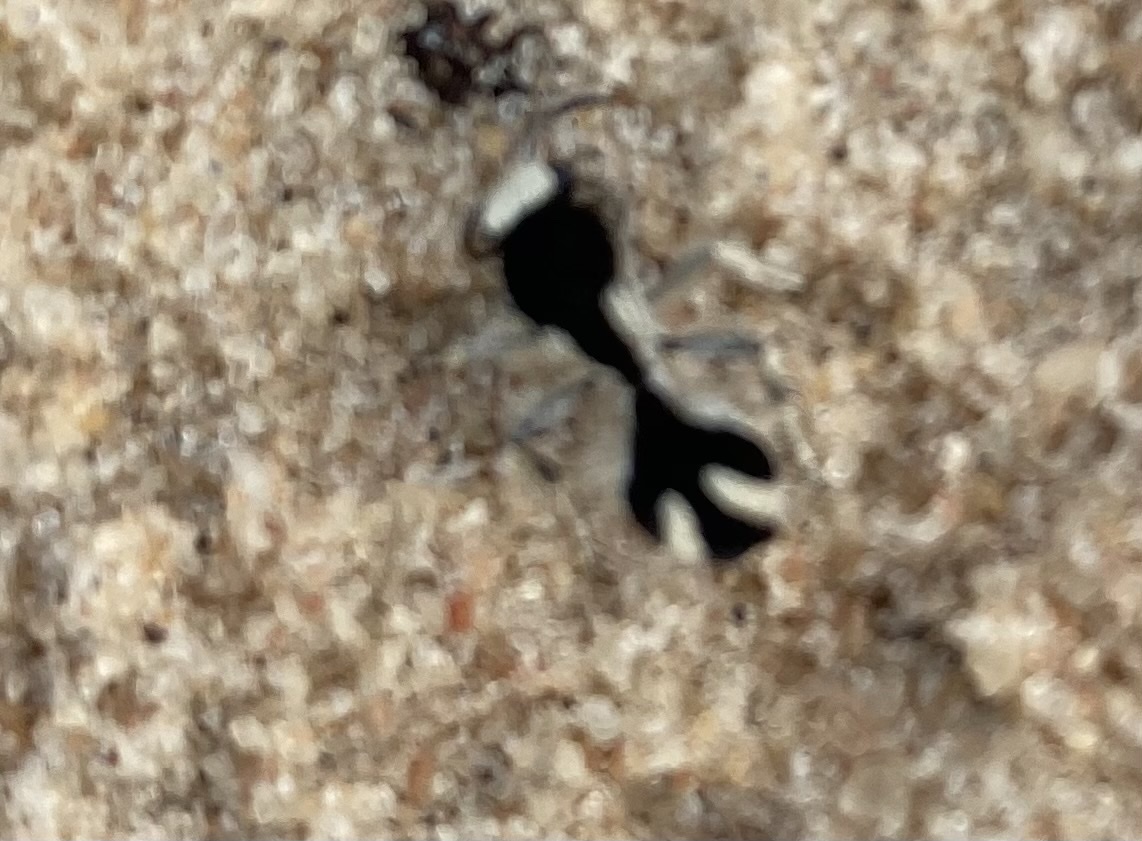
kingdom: Animalia
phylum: Arthropoda
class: Insecta
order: Hymenoptera
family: Mutillidae
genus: Traumatomutilla
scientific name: Traumatomutilla bifurca
